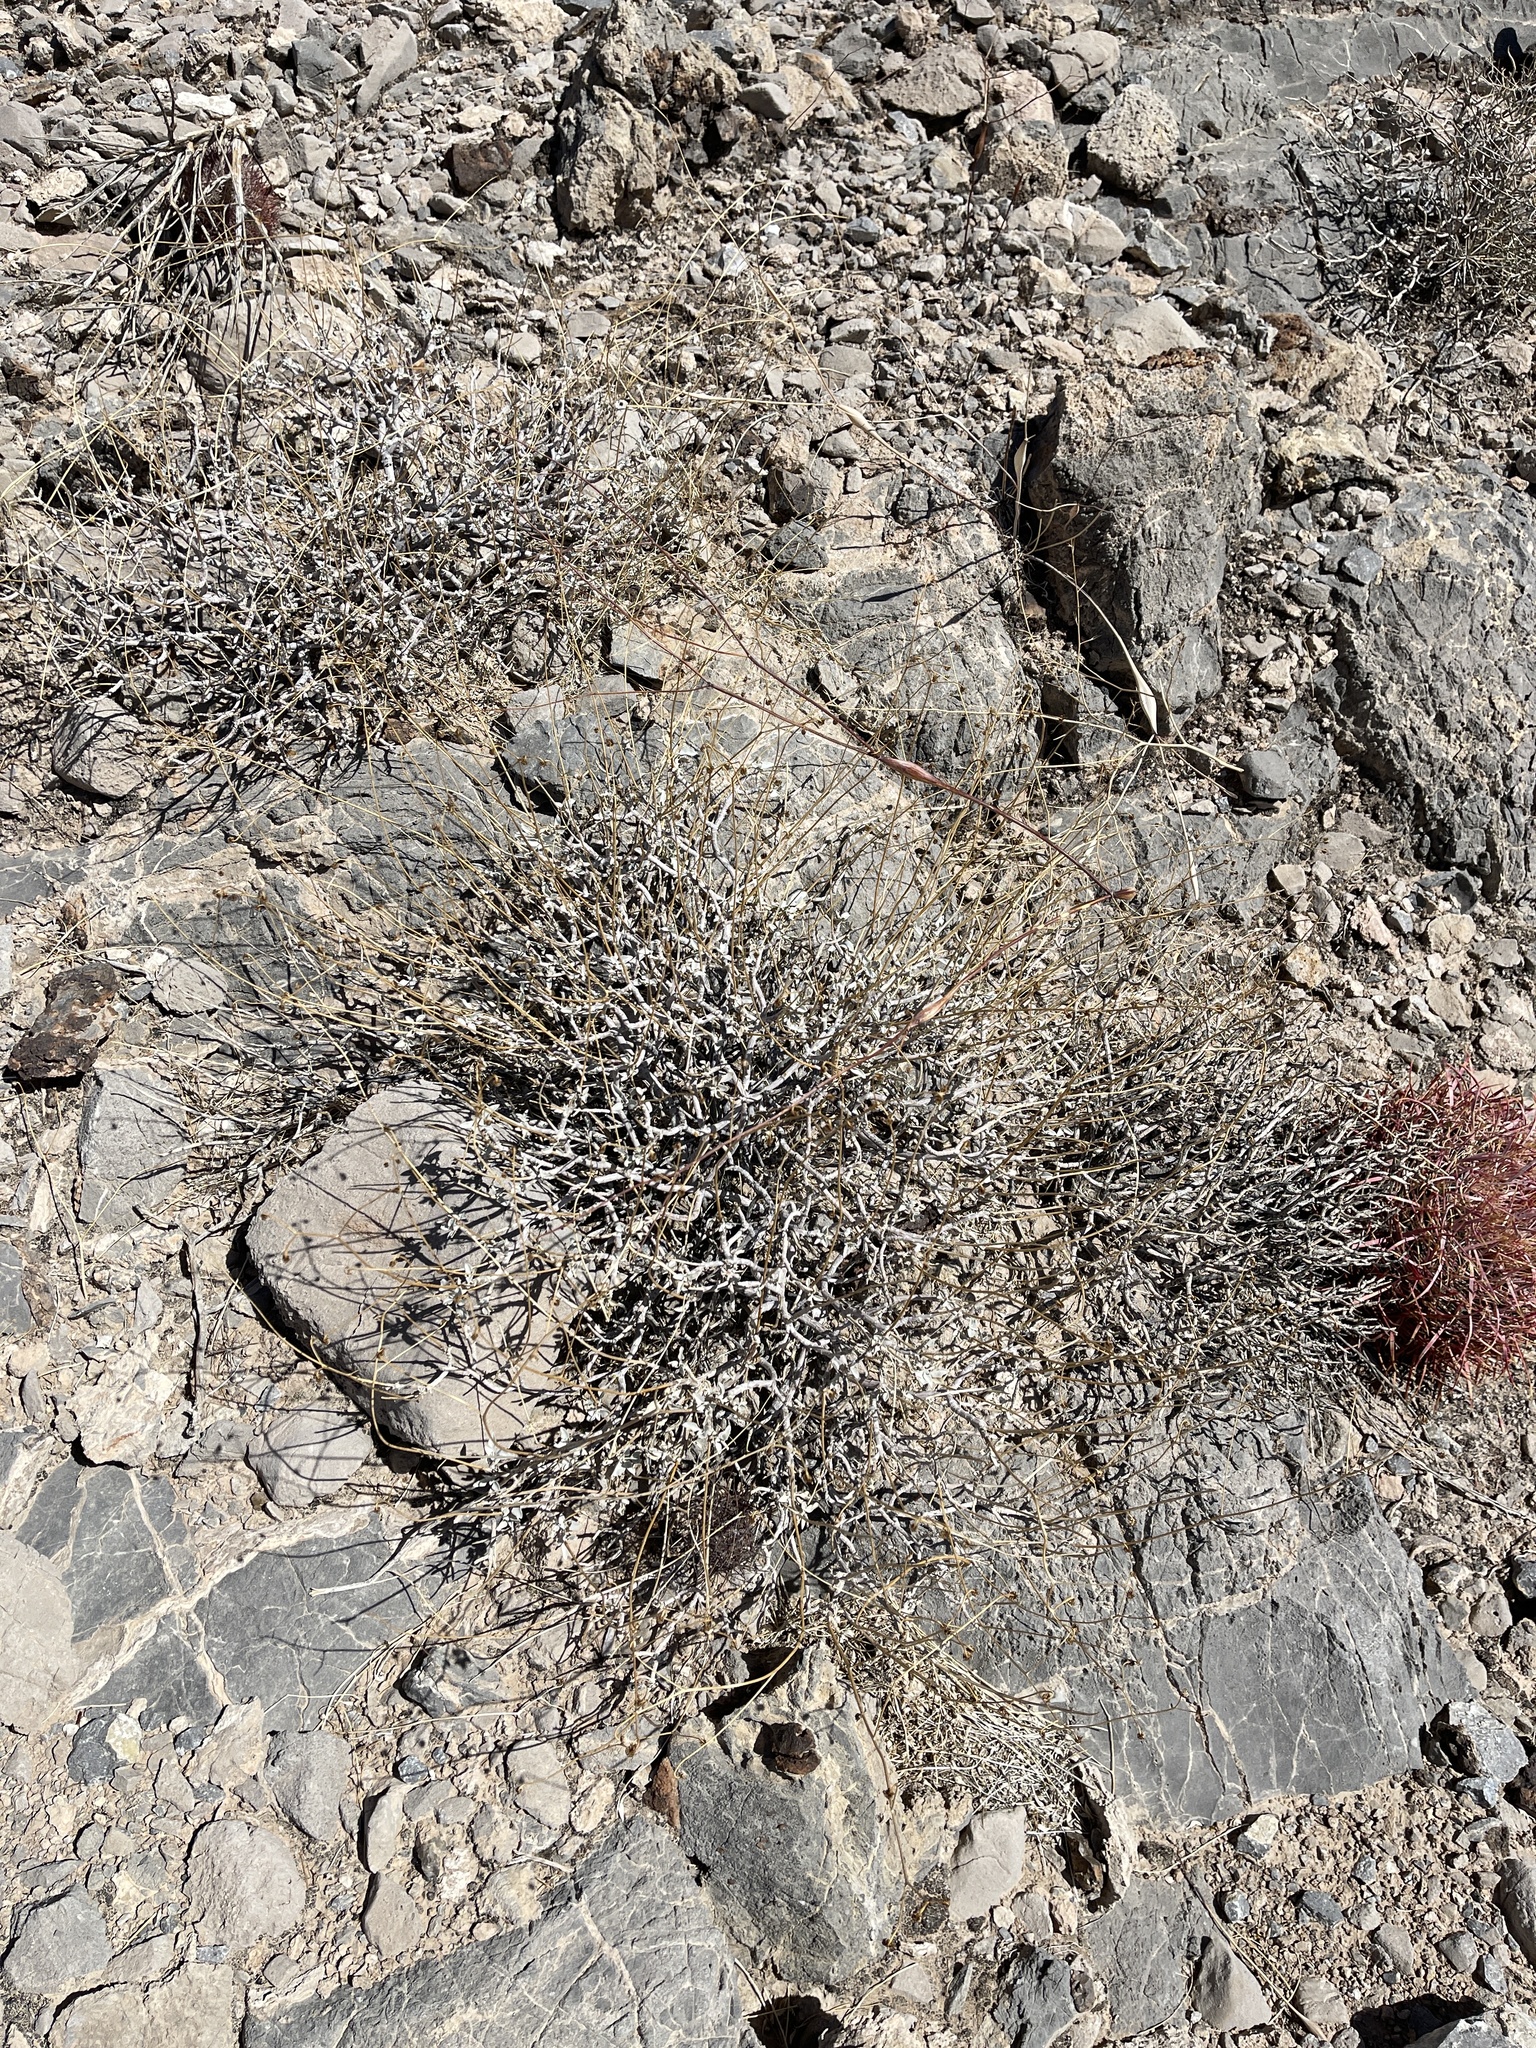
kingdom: Plantae
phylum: Tracheophyta
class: Magnoliopsida
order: Asterales
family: Asteraceae
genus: Encelia
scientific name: Encelia farinosa
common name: Brittlebush
